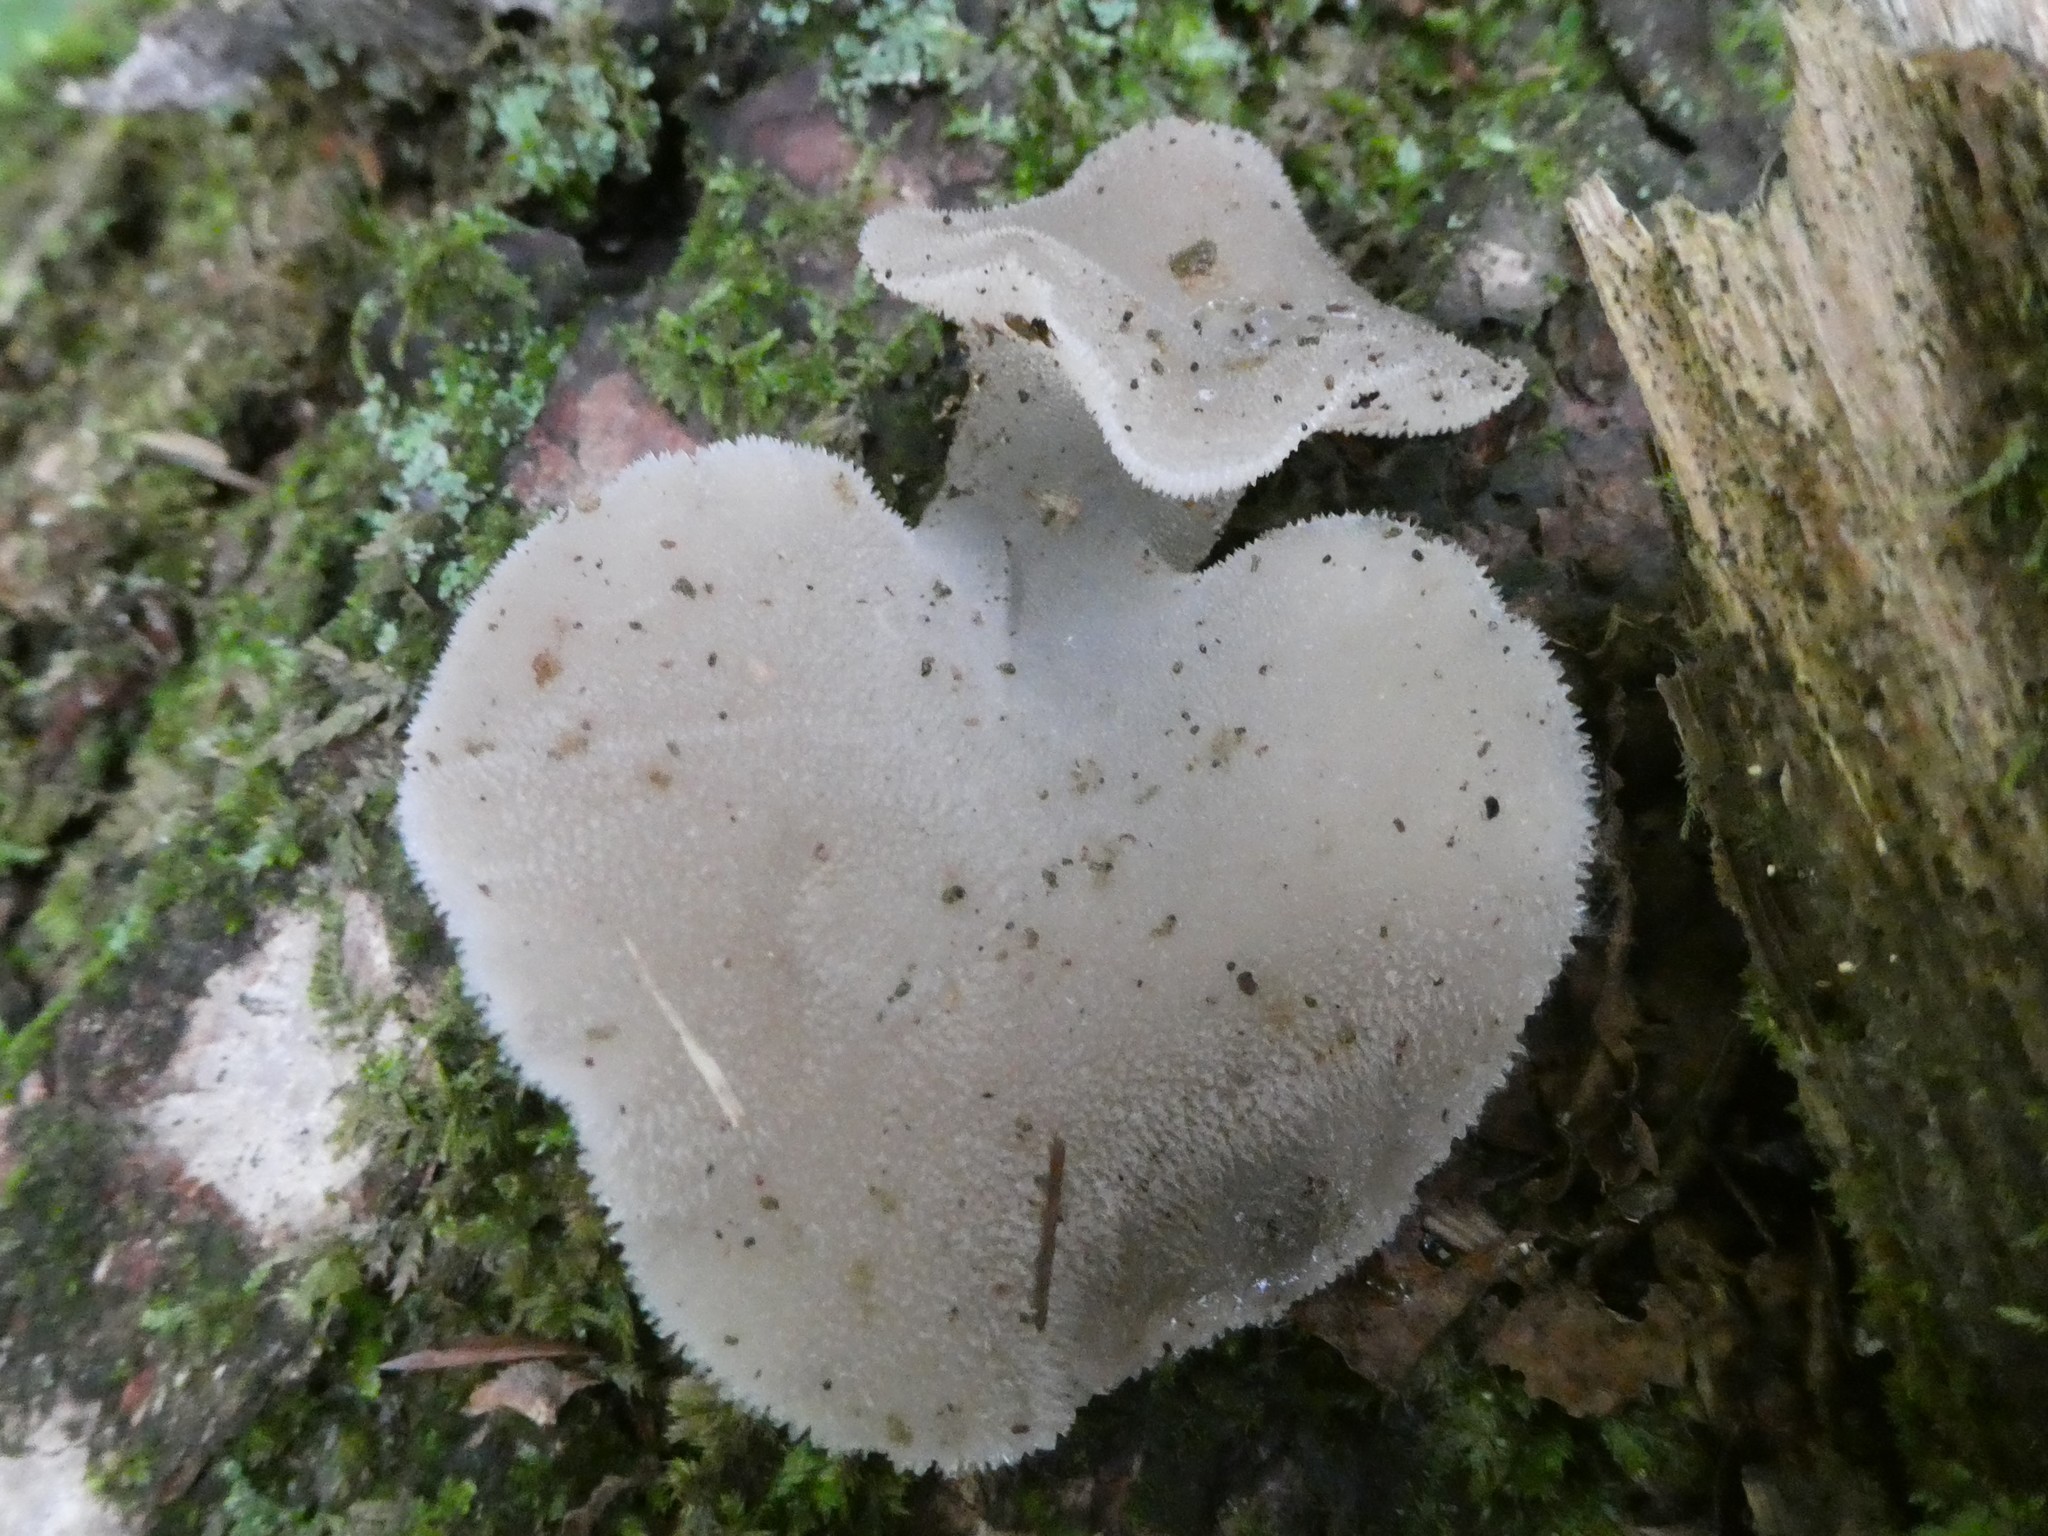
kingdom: Fungi
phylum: Basidiomycota
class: Agaricomycetes
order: Auriculariales
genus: Pseudohydnum
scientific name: Pseudohydnum gelatinosum
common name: Jelly tongue
